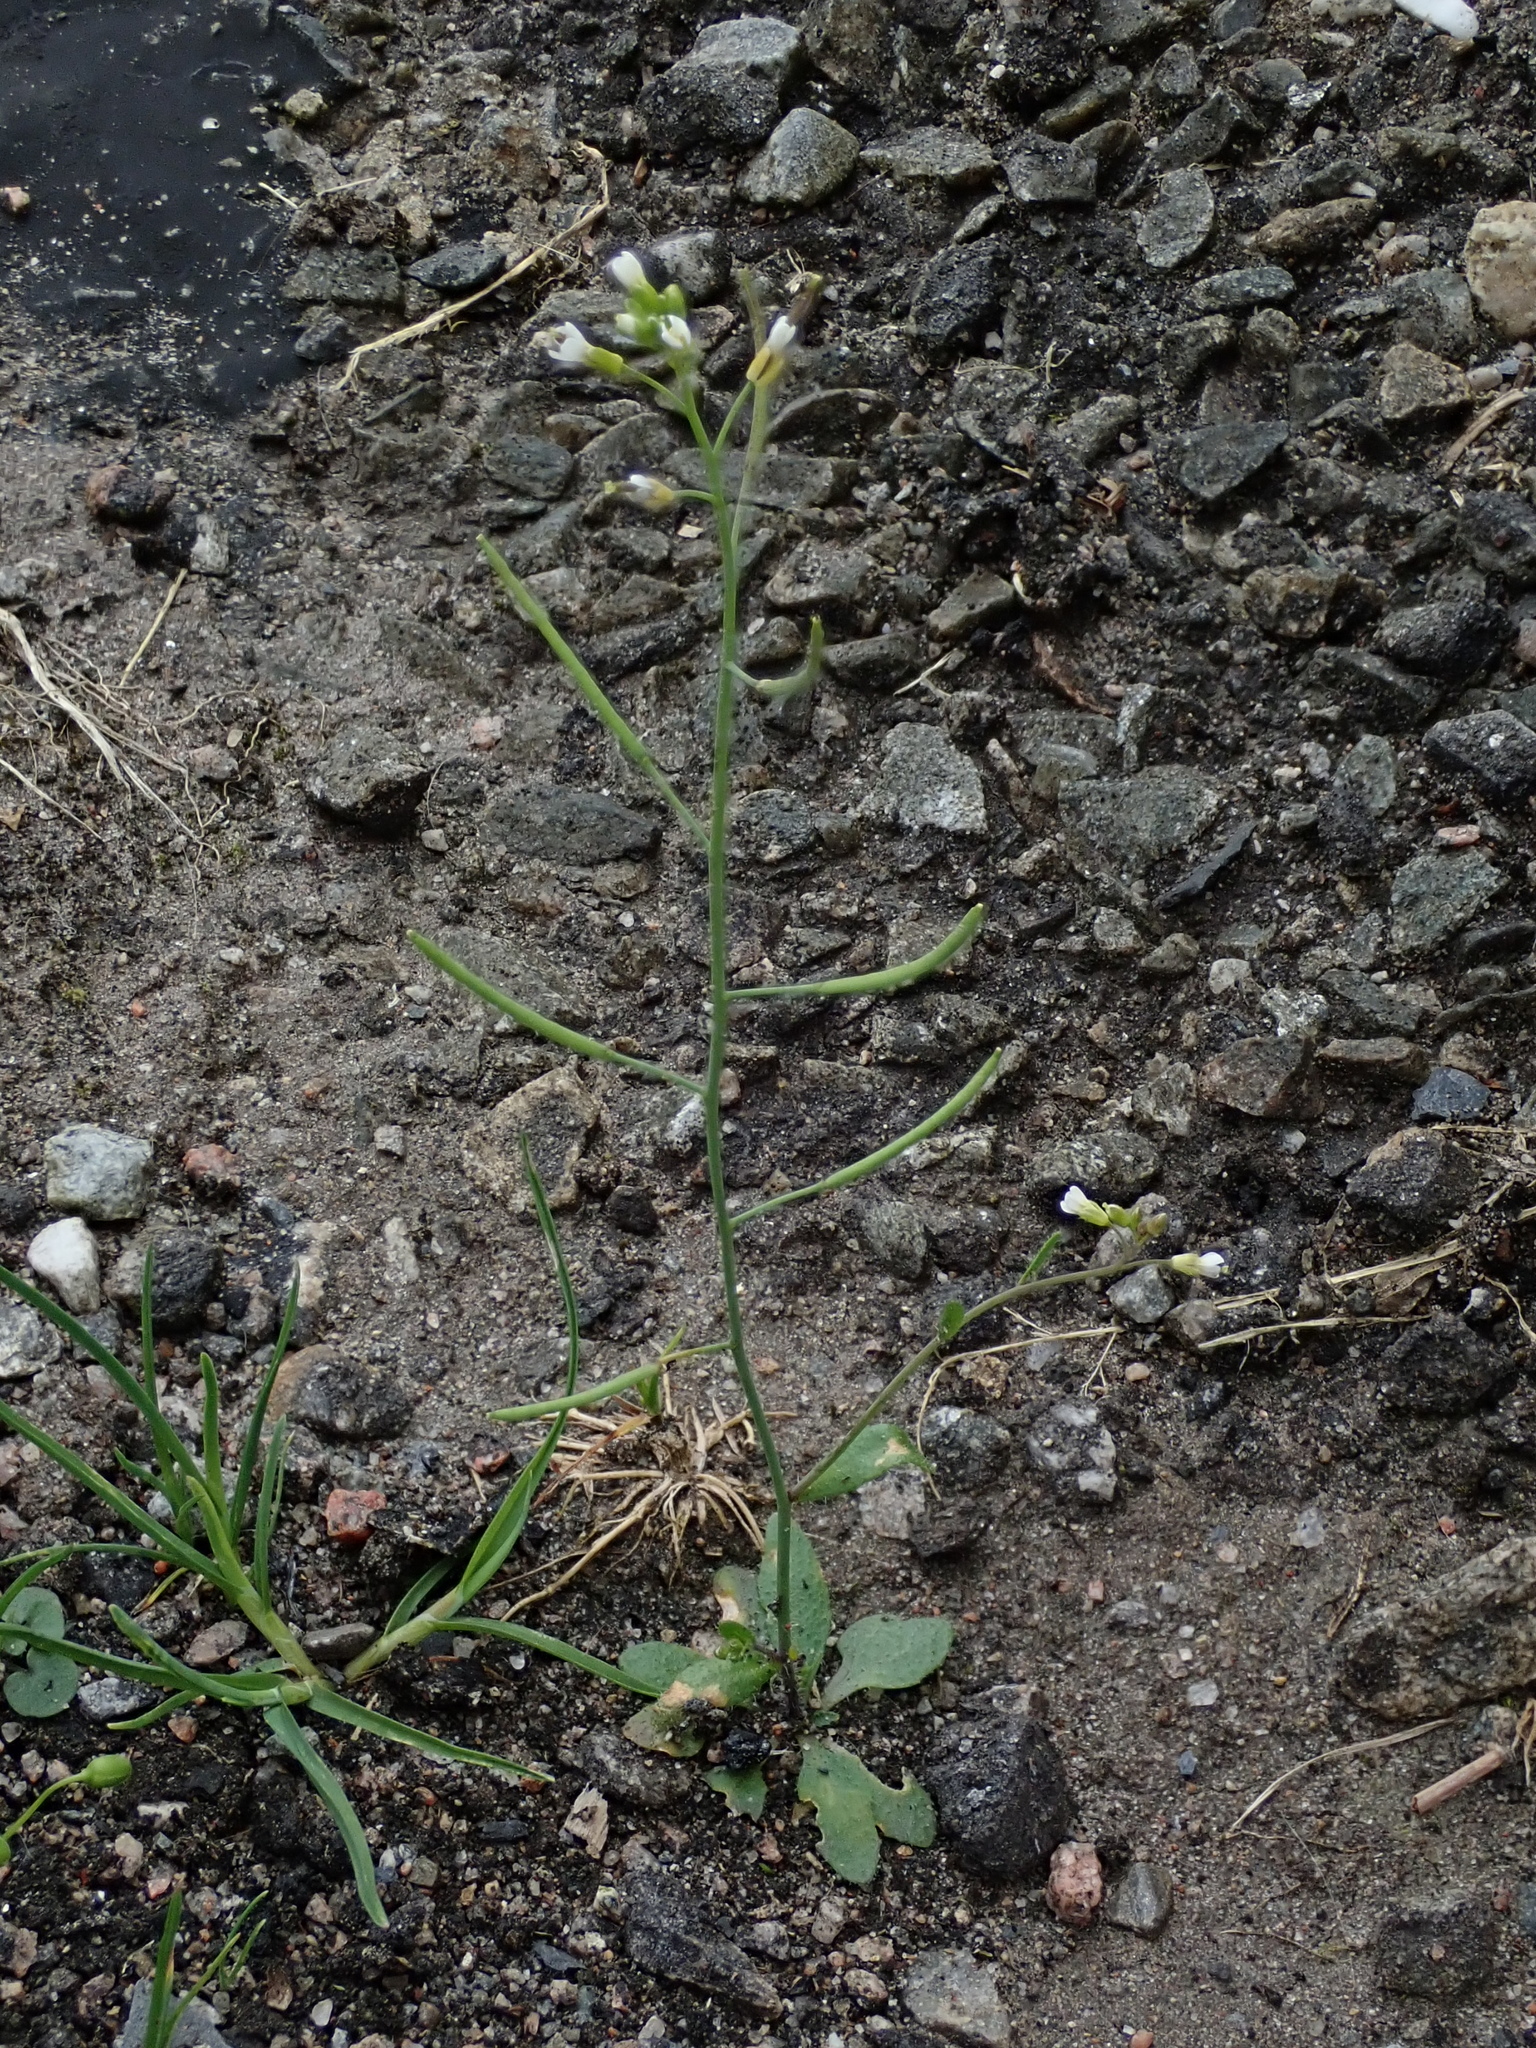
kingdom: Plantae
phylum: Tracheophyta
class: Magnoliopsida
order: Brassicales
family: Brassicaceae
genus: Arabidopsis
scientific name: Arabidopsis thaliana
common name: Thale cress
